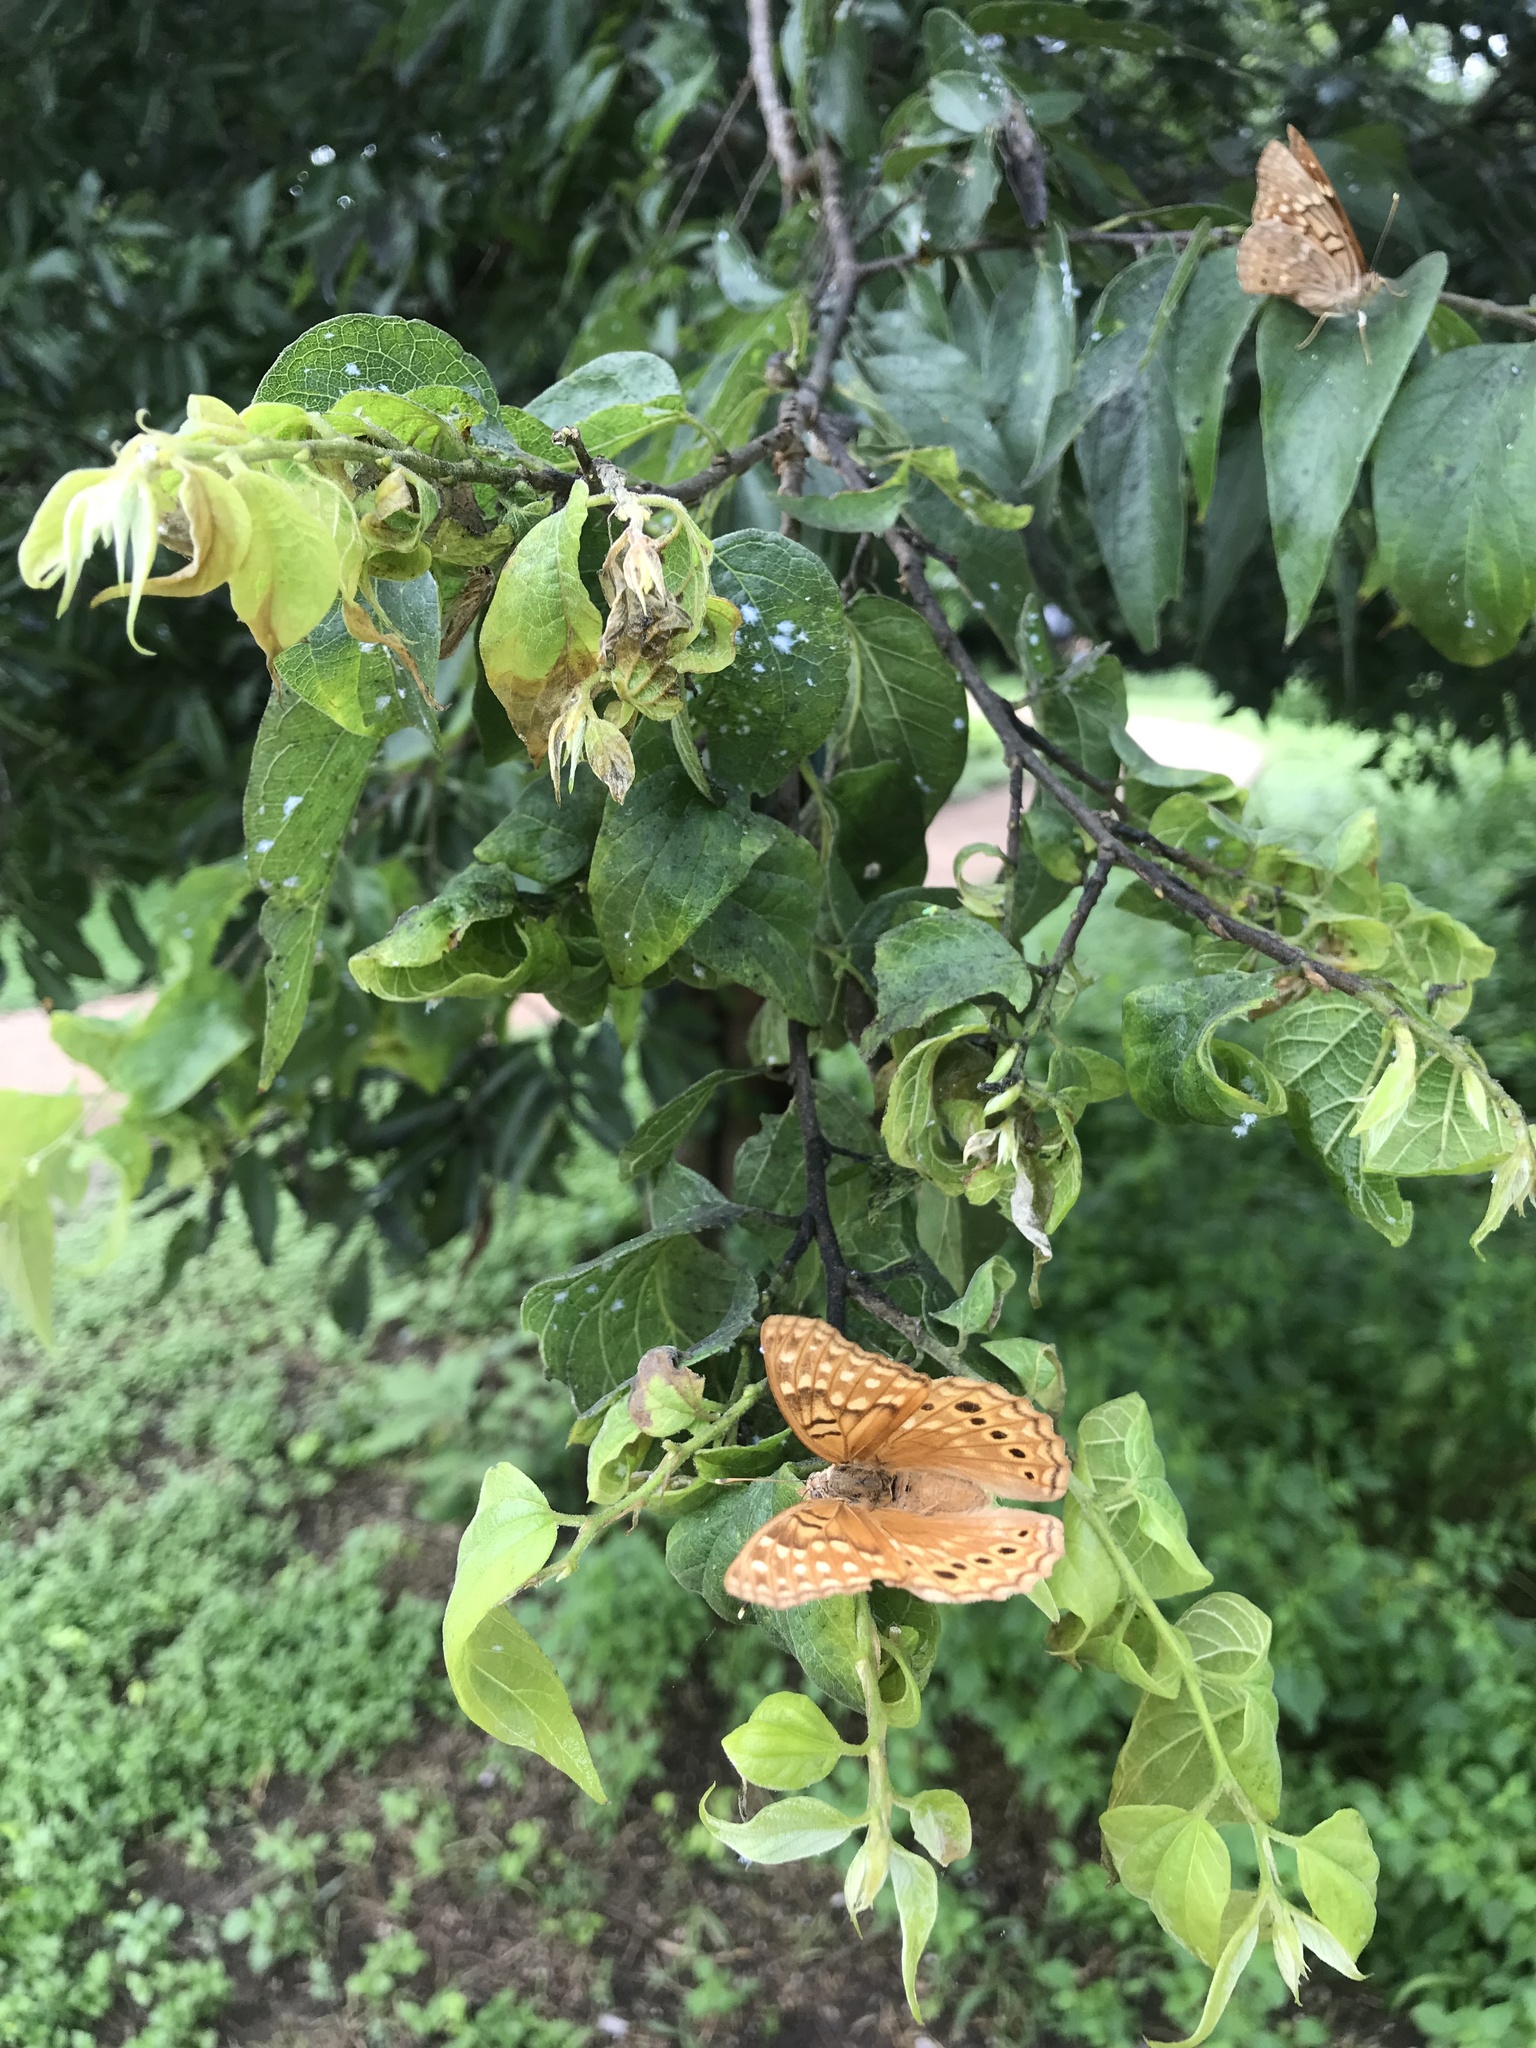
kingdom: Animalia
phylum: Arthropoda
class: Insecta
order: Lepidoptera
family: Nymphalidae
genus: Asterocampa
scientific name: Asterocampa clyton
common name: Tawny emperor
